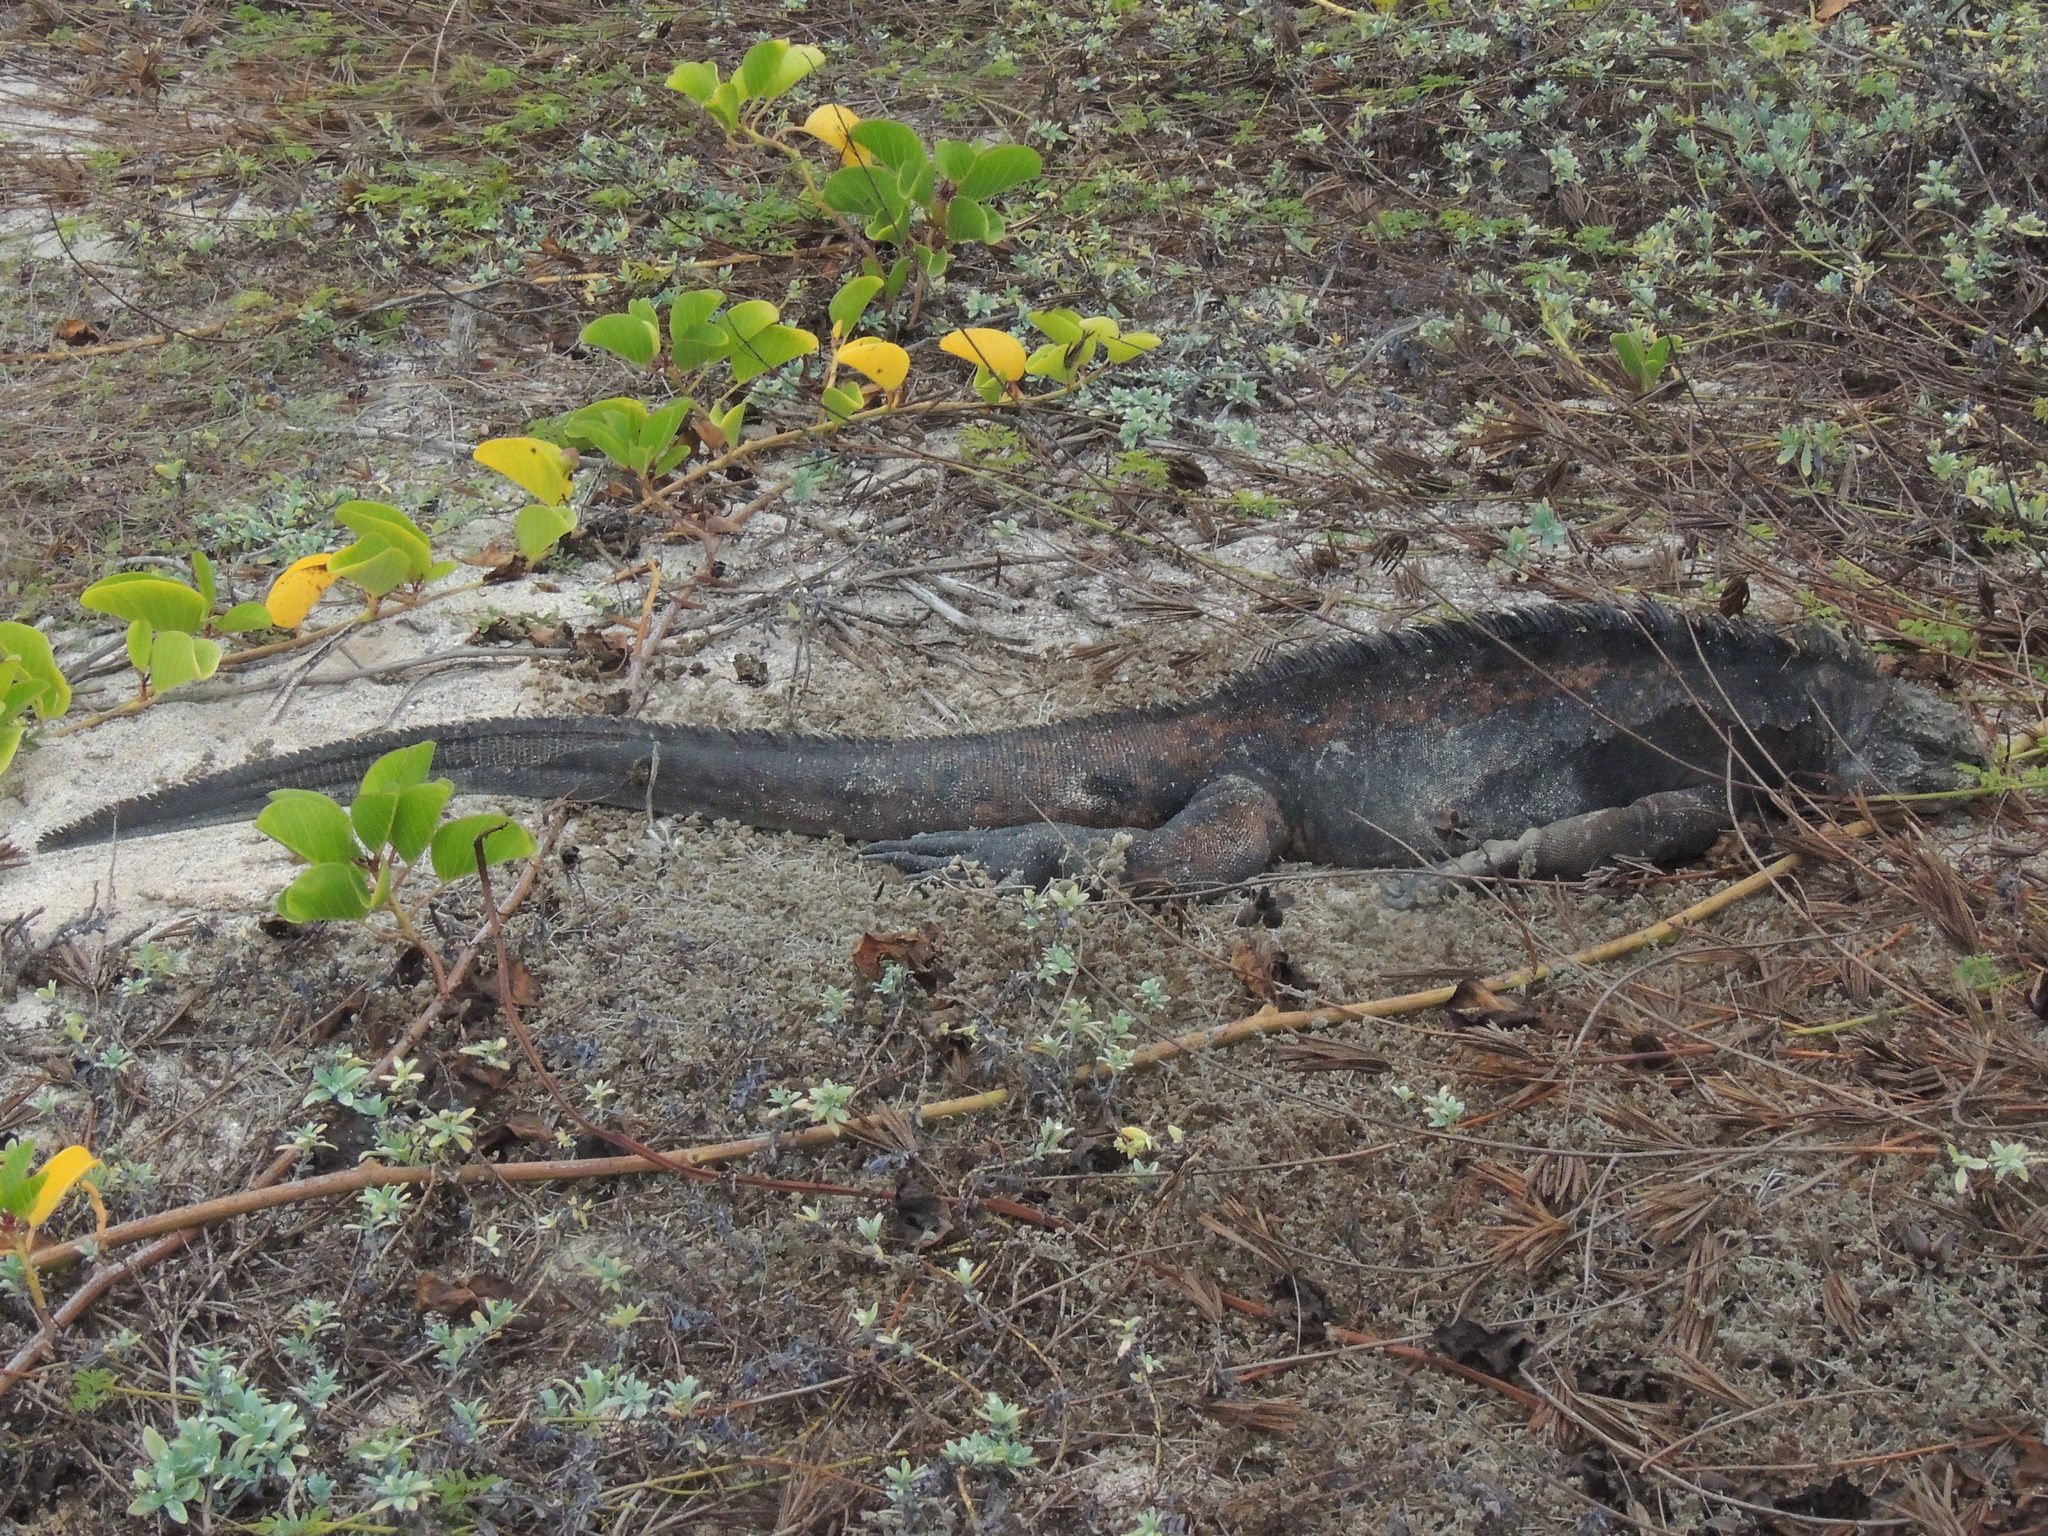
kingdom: Animalia
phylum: Chordata
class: Squamata
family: Iguanidae
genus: Amblyrhynchus
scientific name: Amblyrhynchus cristatus
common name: Marine iguana
